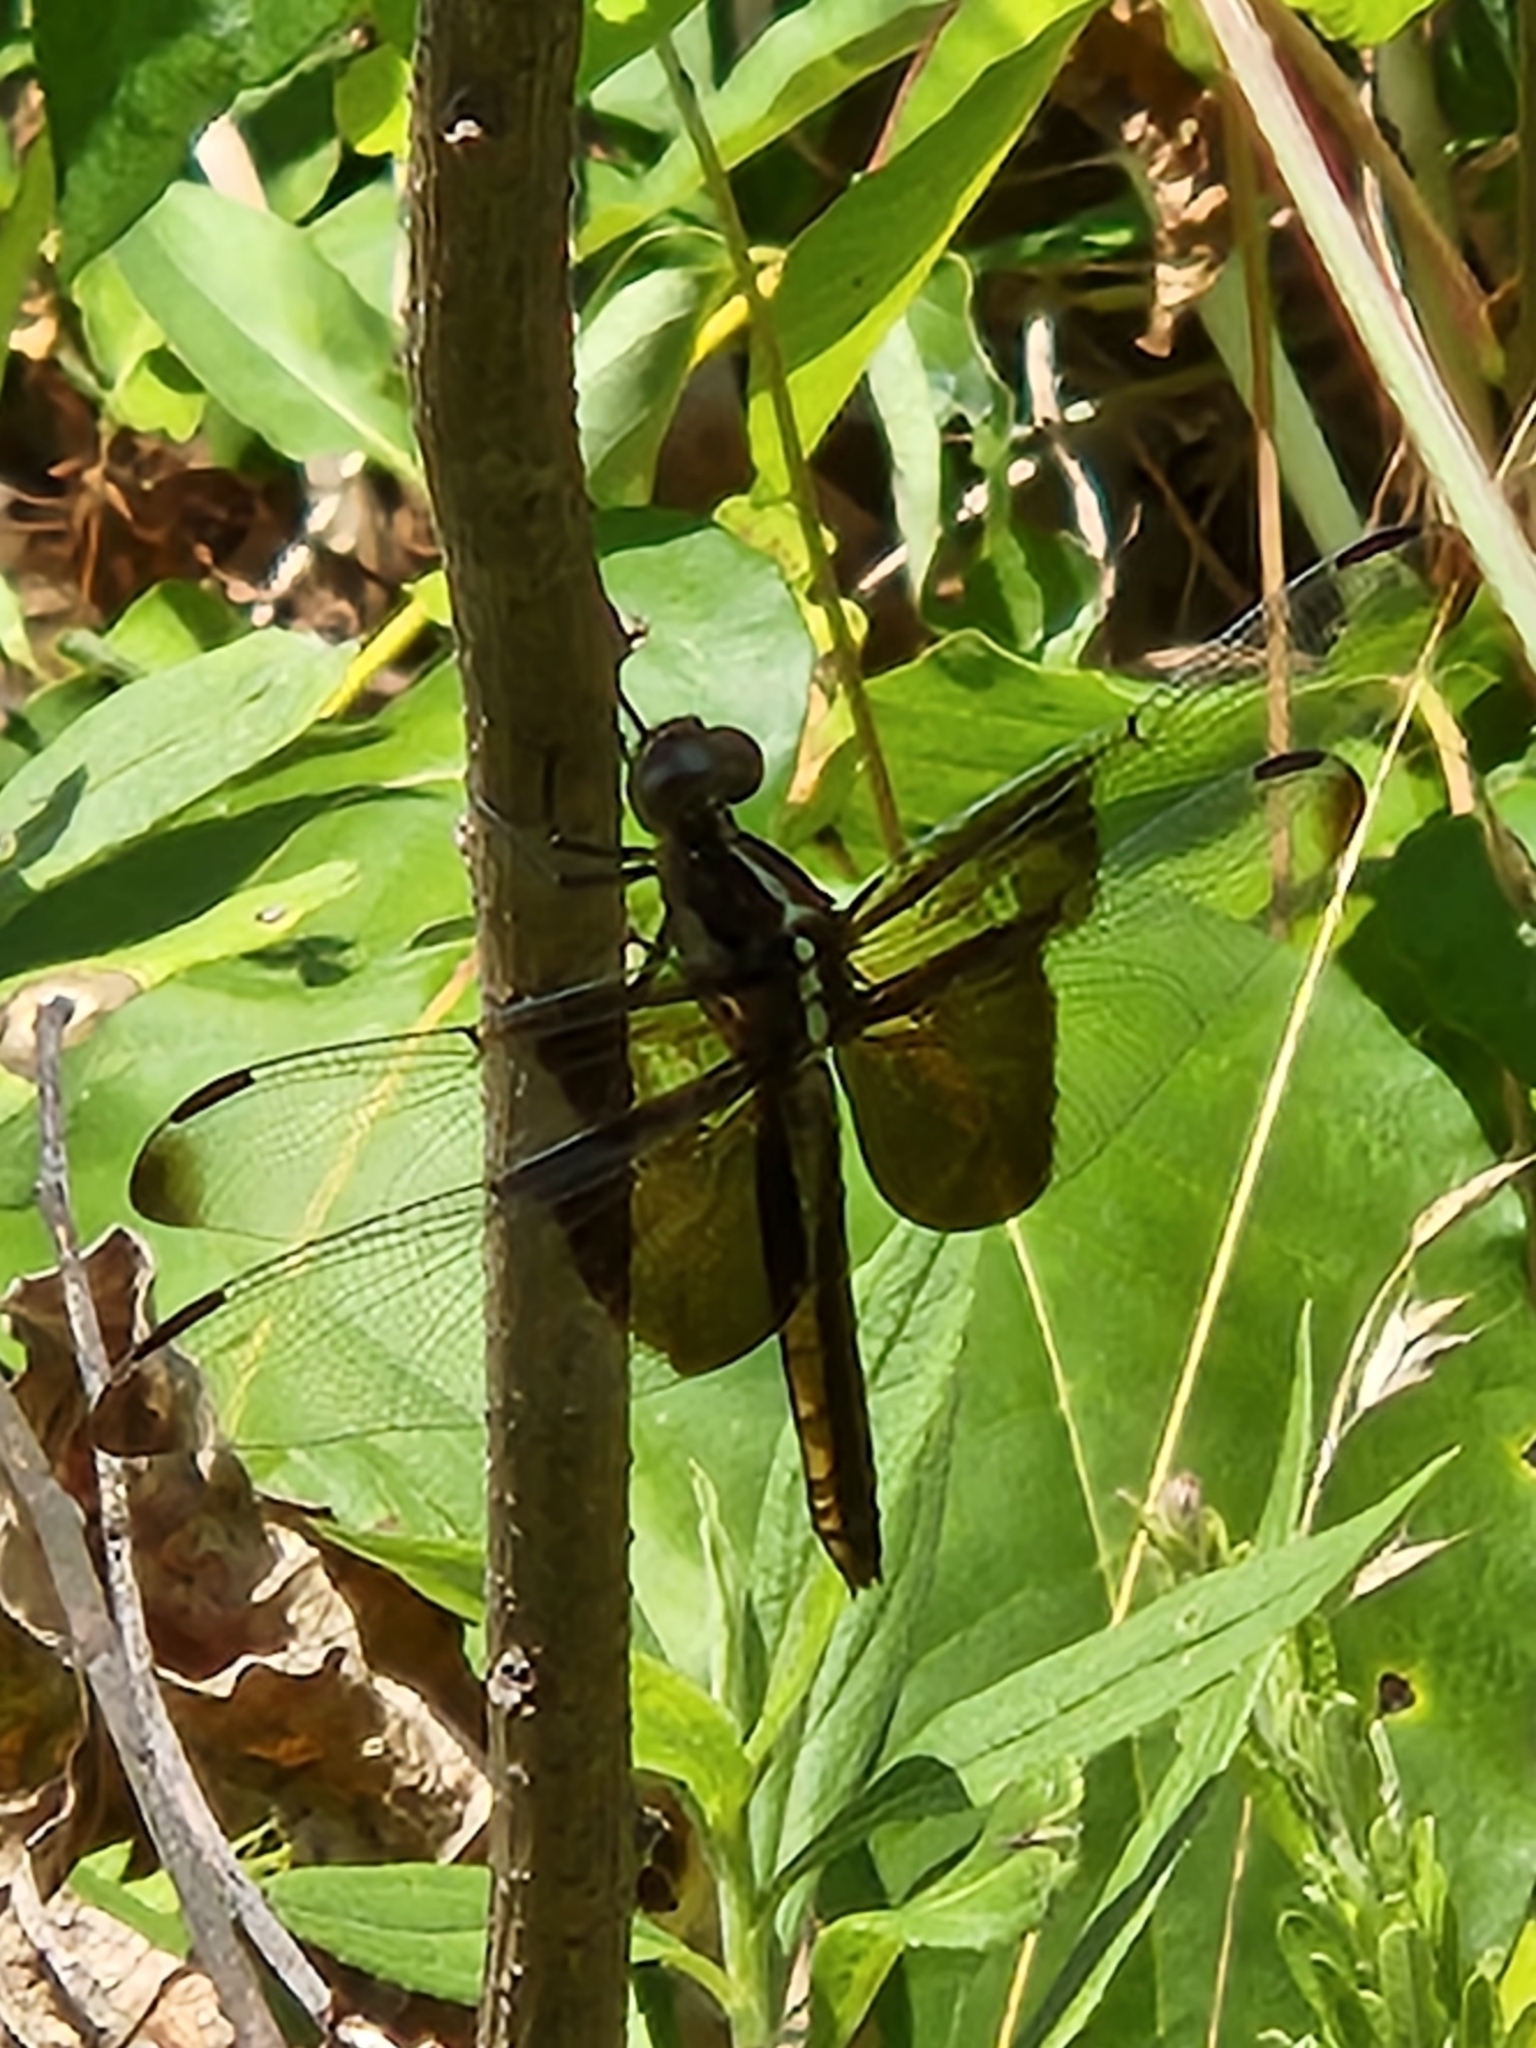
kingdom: Animalia
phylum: Arthropoda
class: Insecta
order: Odonata
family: Libellulidae
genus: Libellula
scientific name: Libellula luctuosa
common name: Widow skimmer
